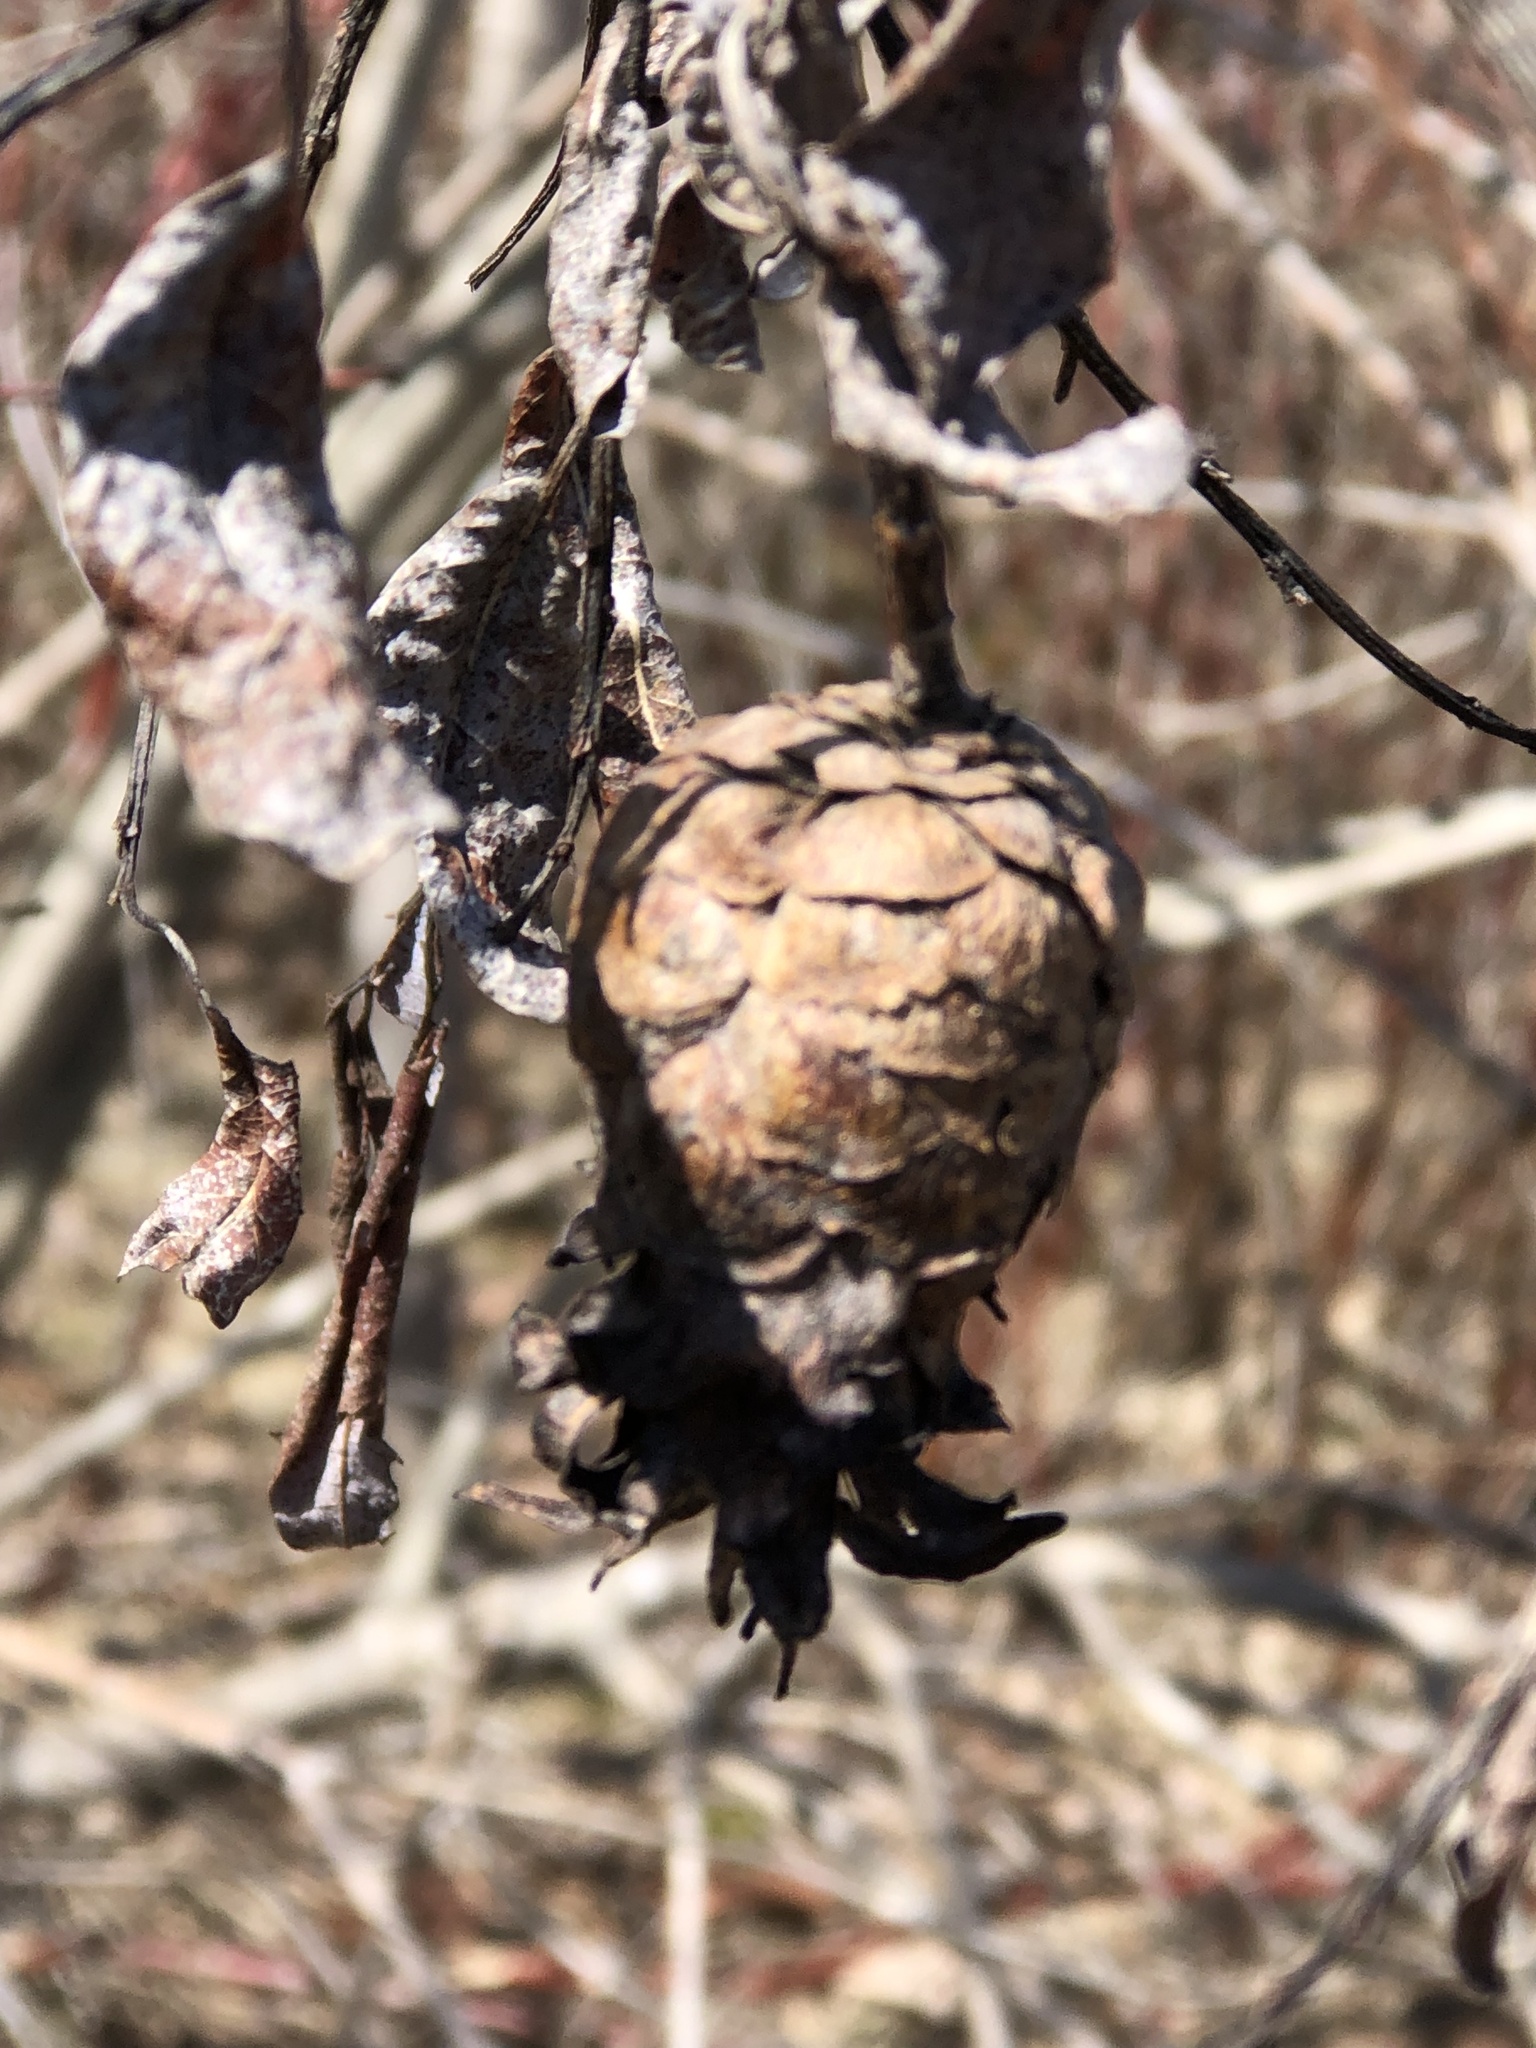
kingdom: Animalia
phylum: Arthropoda
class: Insecta
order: Diptera
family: Cecidomyiidae
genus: Rabdophaga
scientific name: Rabdophaga strobiloides
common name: Willow pinecone gall midge
